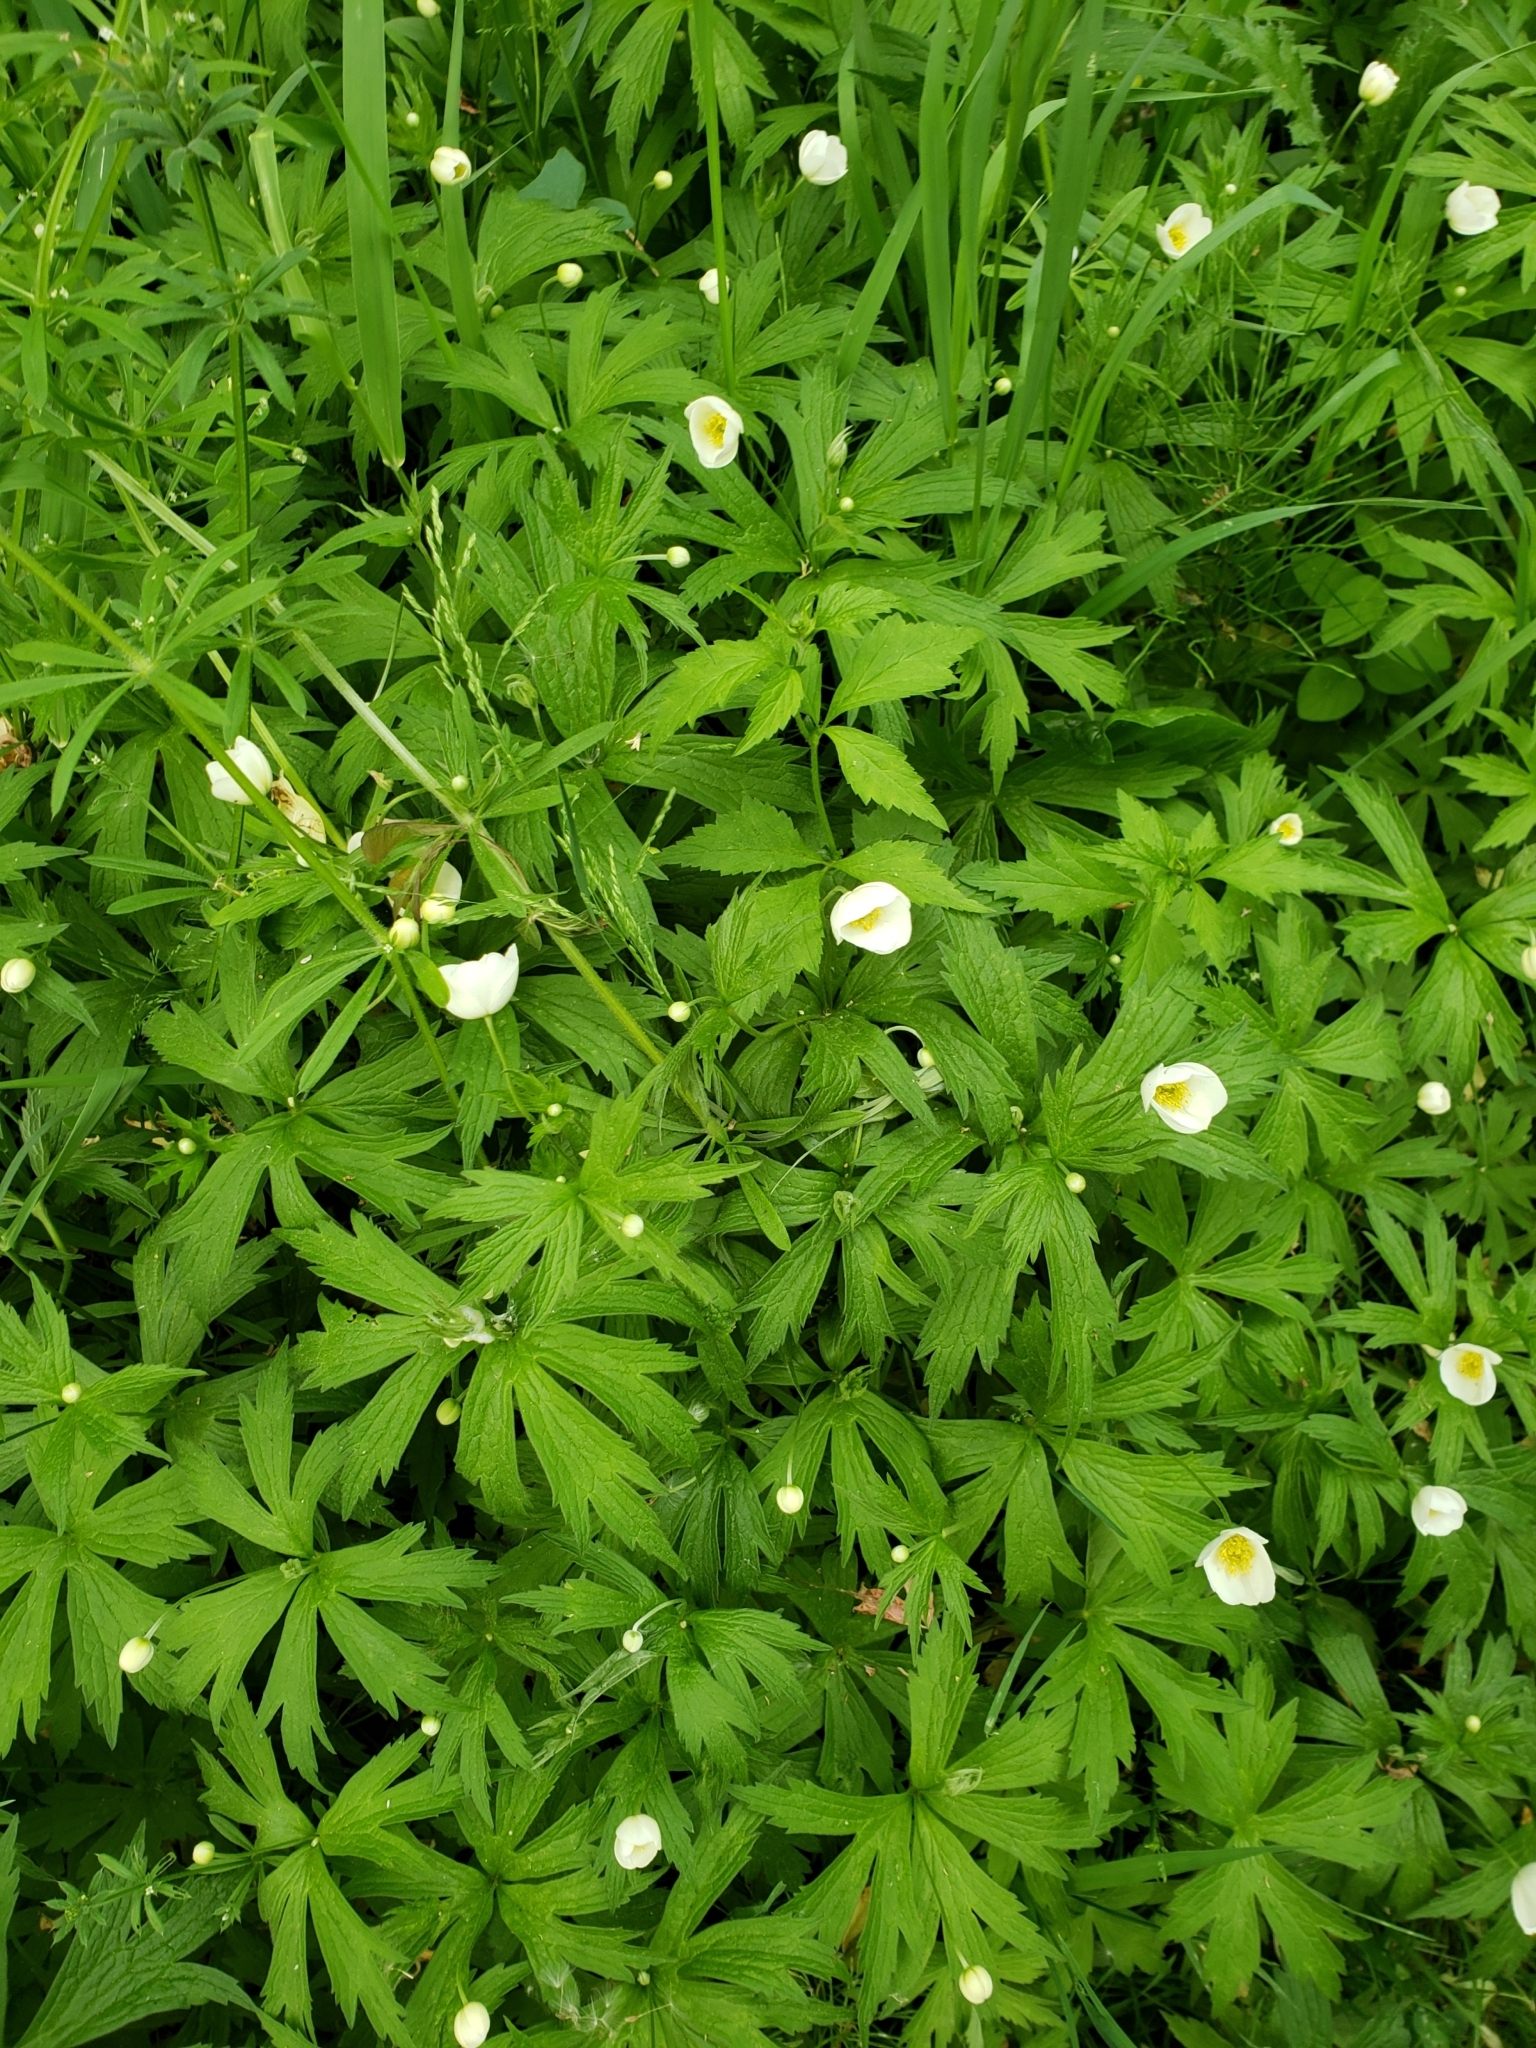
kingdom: Plantae
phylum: Tracheophyta
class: Magnoliopsida
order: Ranunculales
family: Ranunculaceae
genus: Anemonastrum
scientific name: Anemonastrum canadense
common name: Canada anemone
